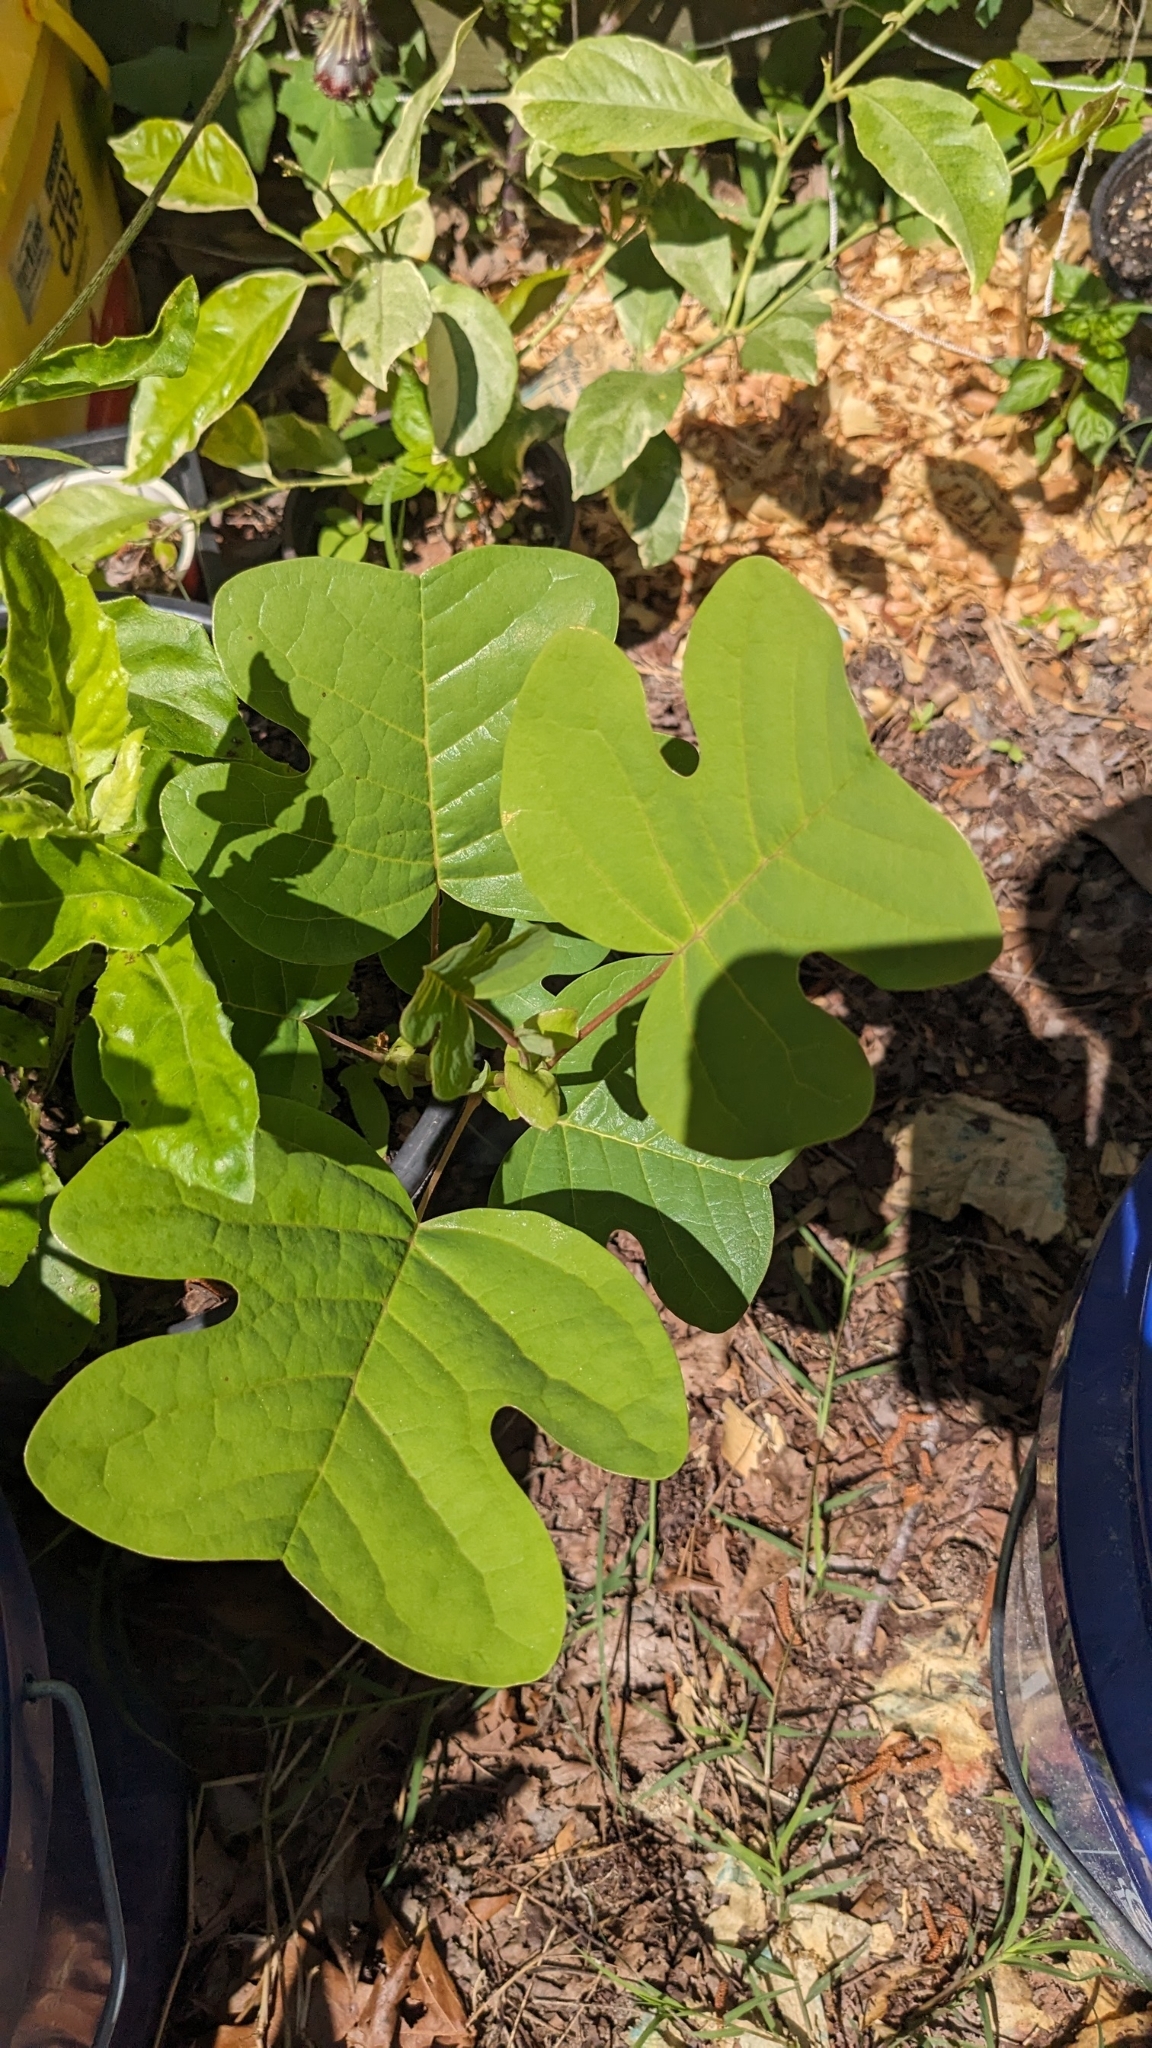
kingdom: Plantae
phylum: Tracheophyta
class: Magnoliopsida
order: Magnoliales
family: Magnoliaceae
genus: Liriodendron
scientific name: Liriodendron tulipifera
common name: Tulip tree
